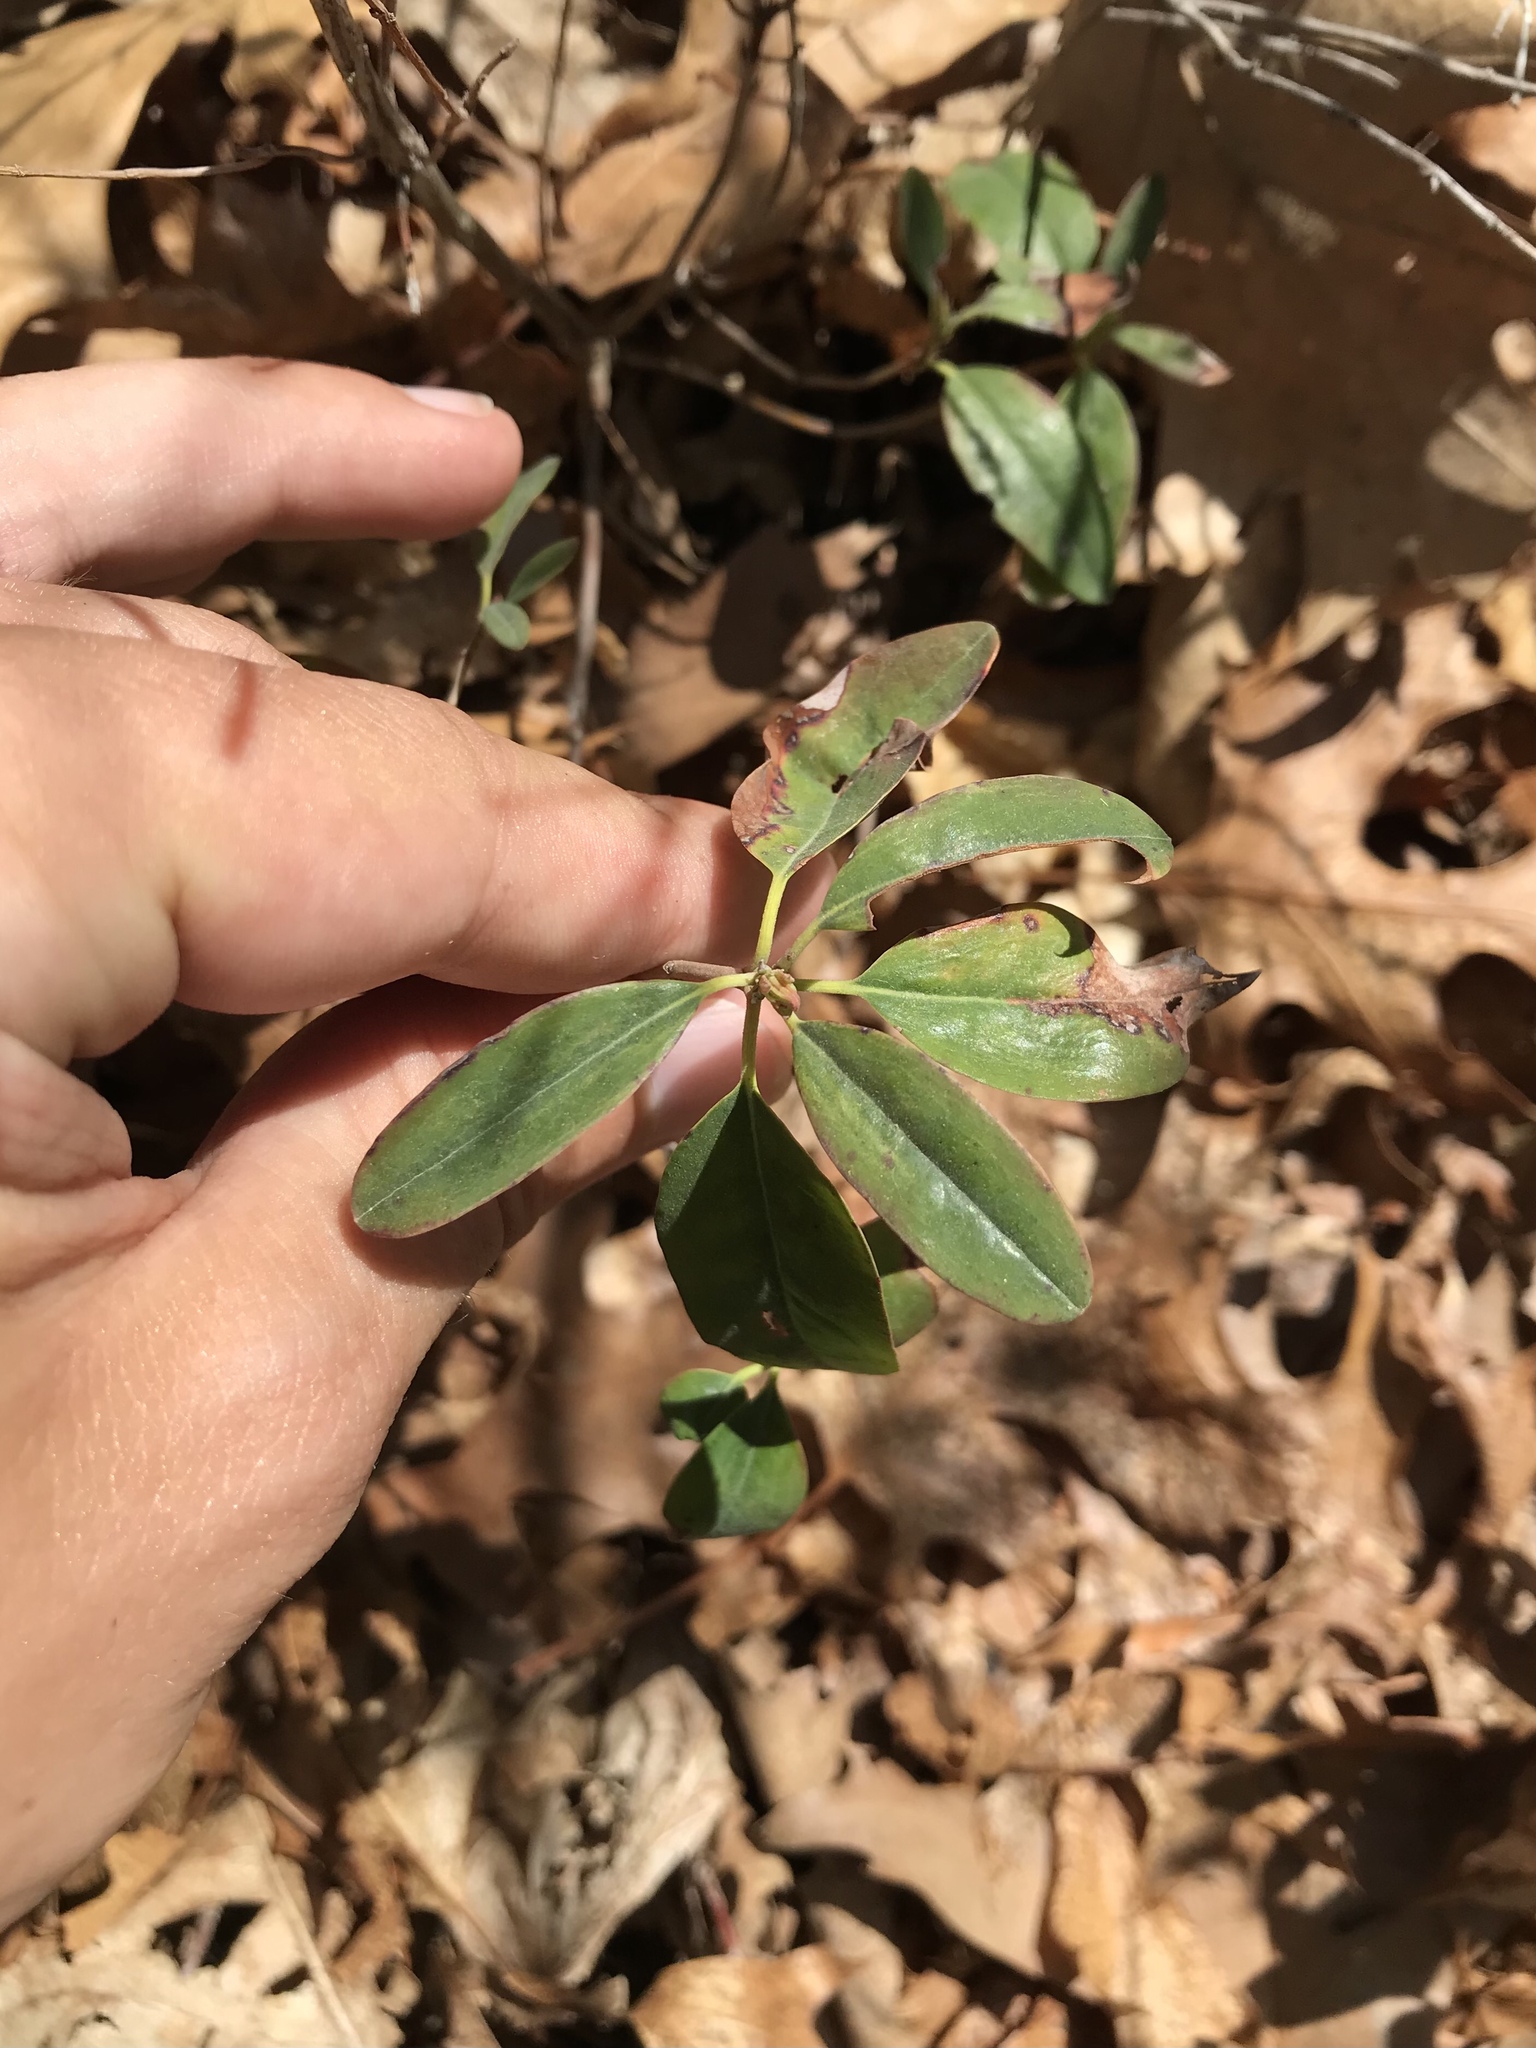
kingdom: Plantae
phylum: Tracheophyta
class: Magnoliopsida
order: Ericales
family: Ericaceae
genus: Kalmia
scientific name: Kalmia angustifolia
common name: Sheep-laurel
